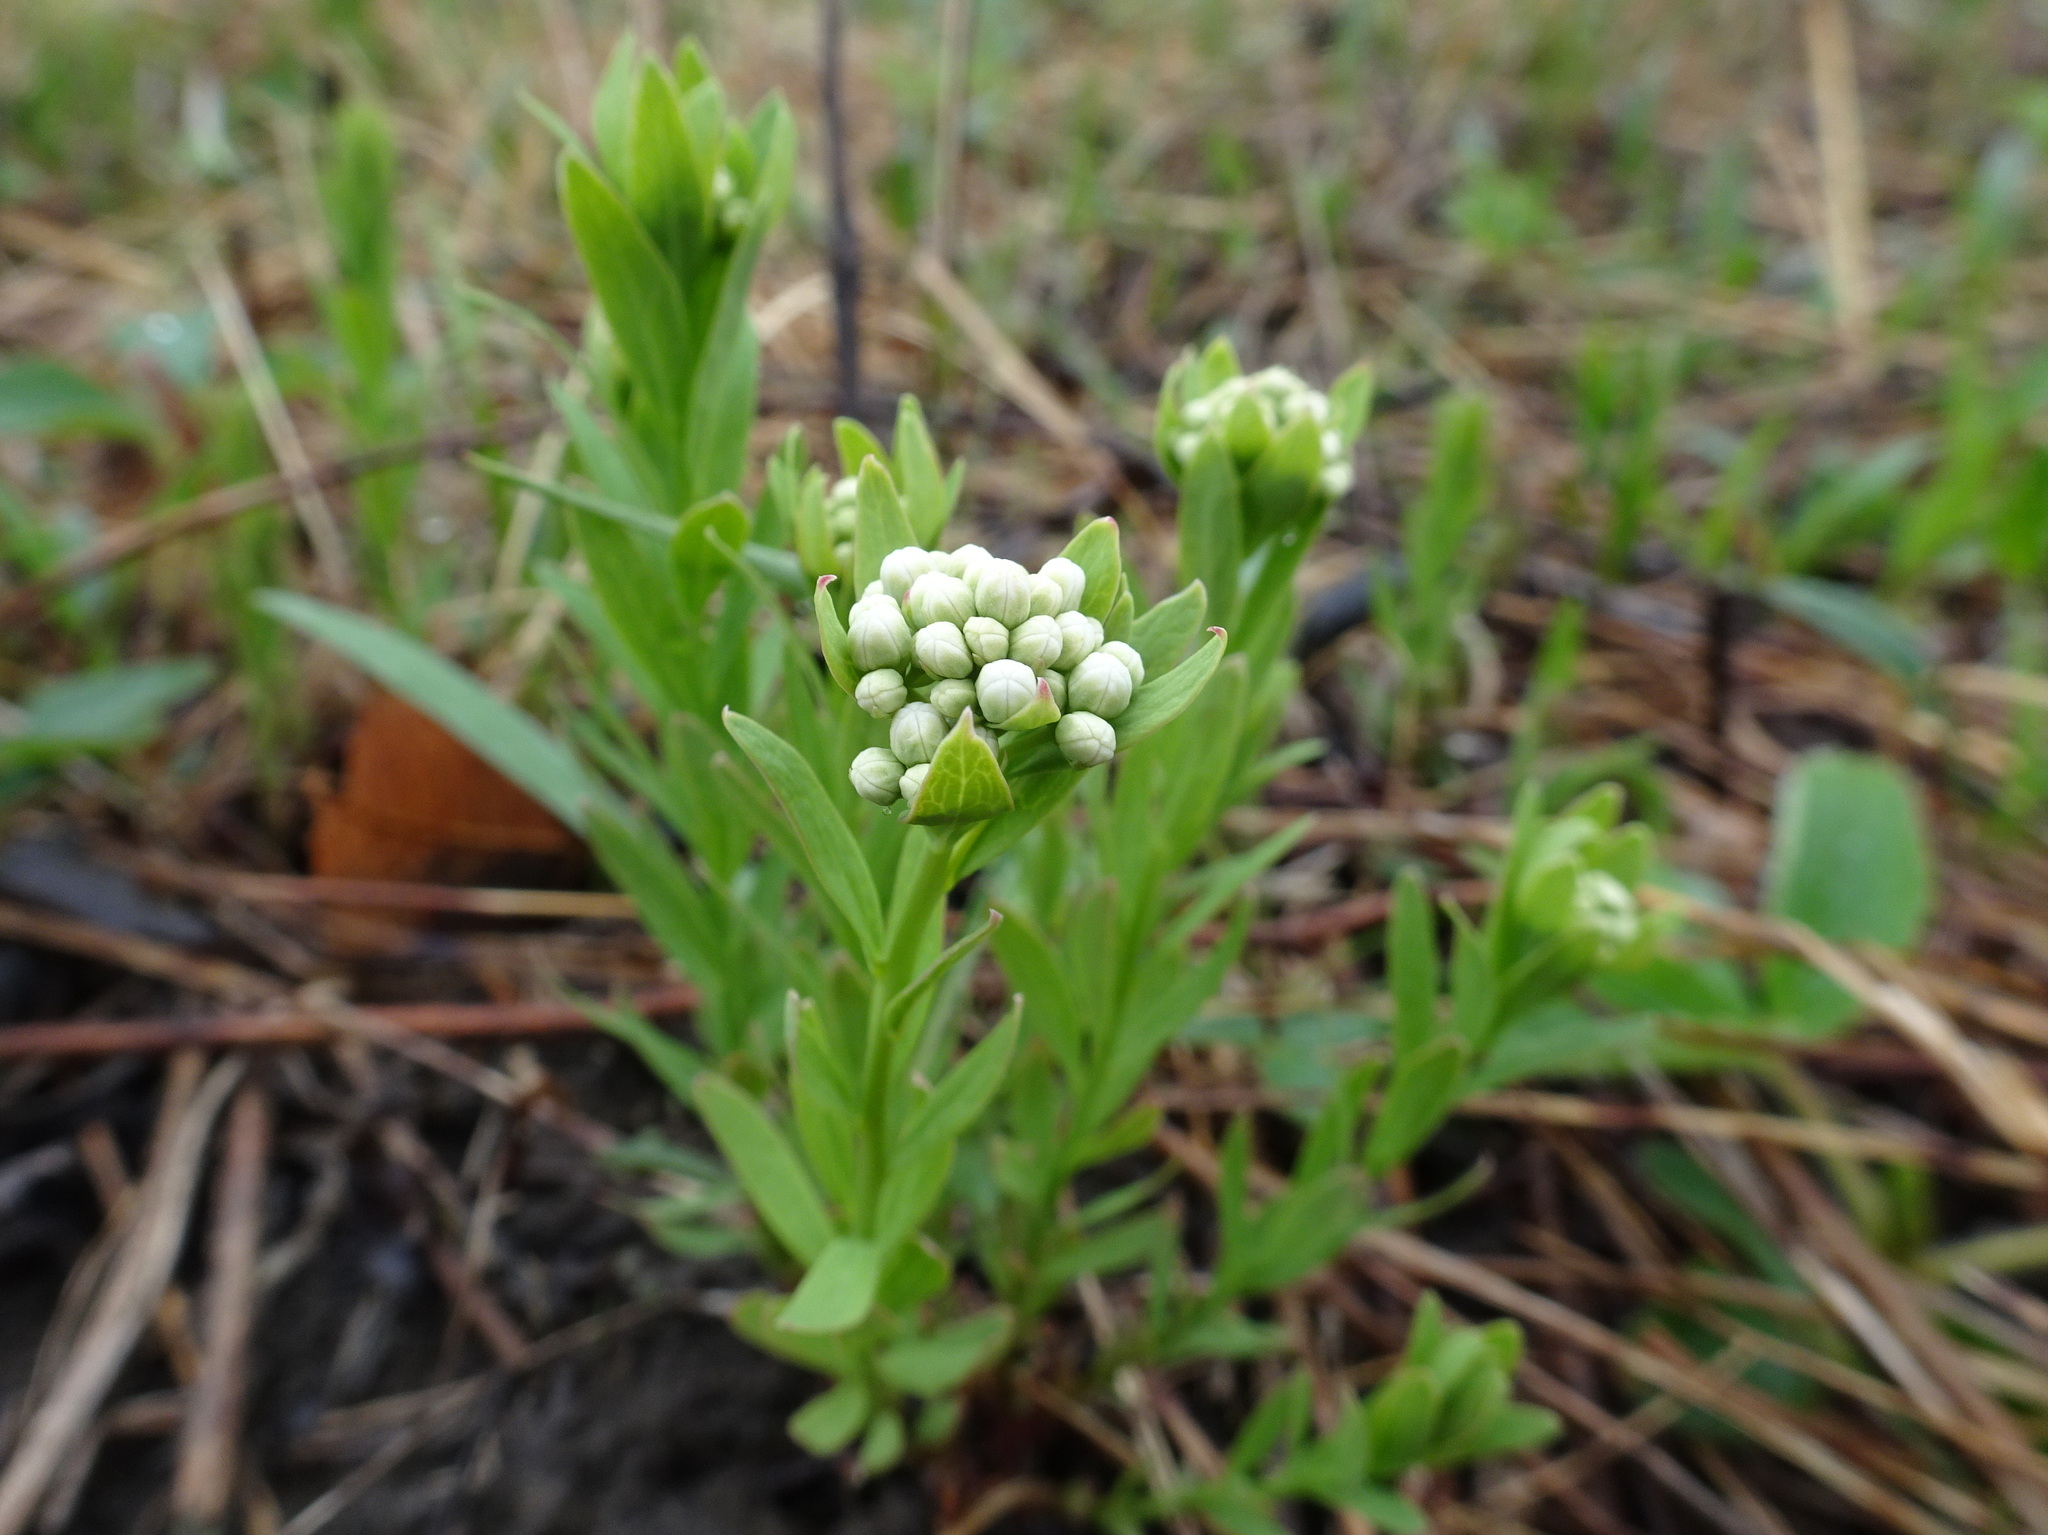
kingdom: Plantae
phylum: Tracheophyta
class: Magnoliopsida
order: Santalales
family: Comandraceae
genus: Comandra
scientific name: Comandra umbellata
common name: Bastard toadflax
